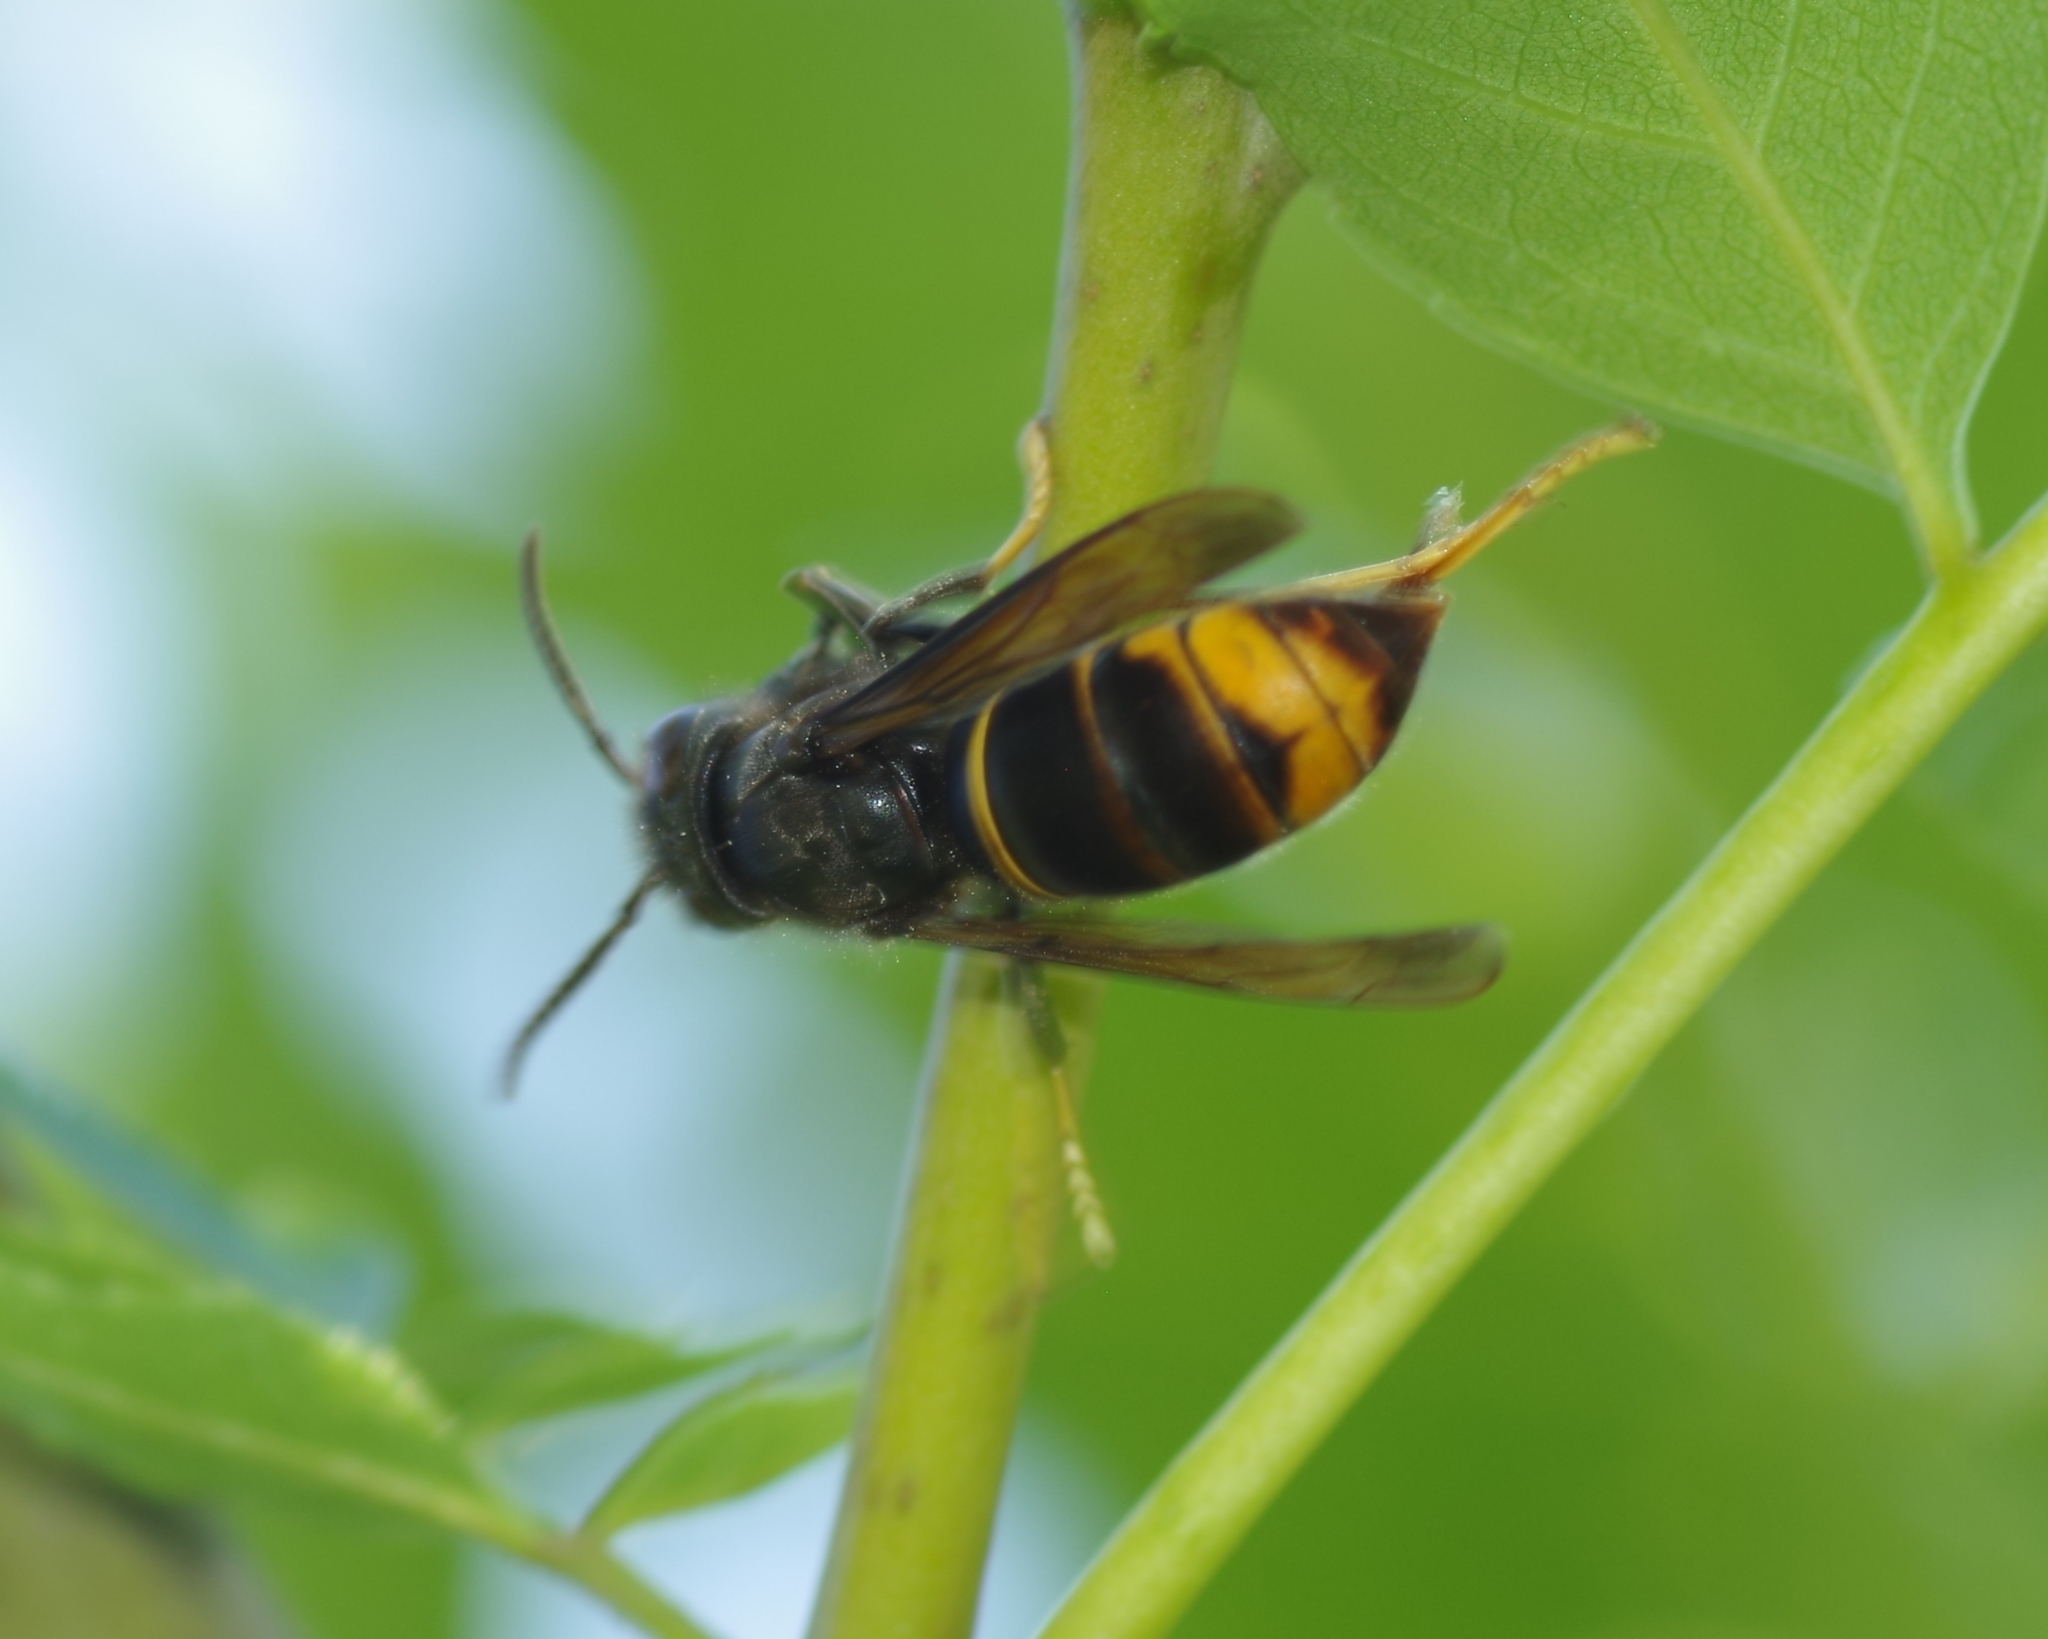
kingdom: Animalia
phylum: Arthropoda
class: Insecta
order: Hymenoptera
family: Vespidae
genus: Vespa
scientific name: Vespa velutina
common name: Asian hornet
